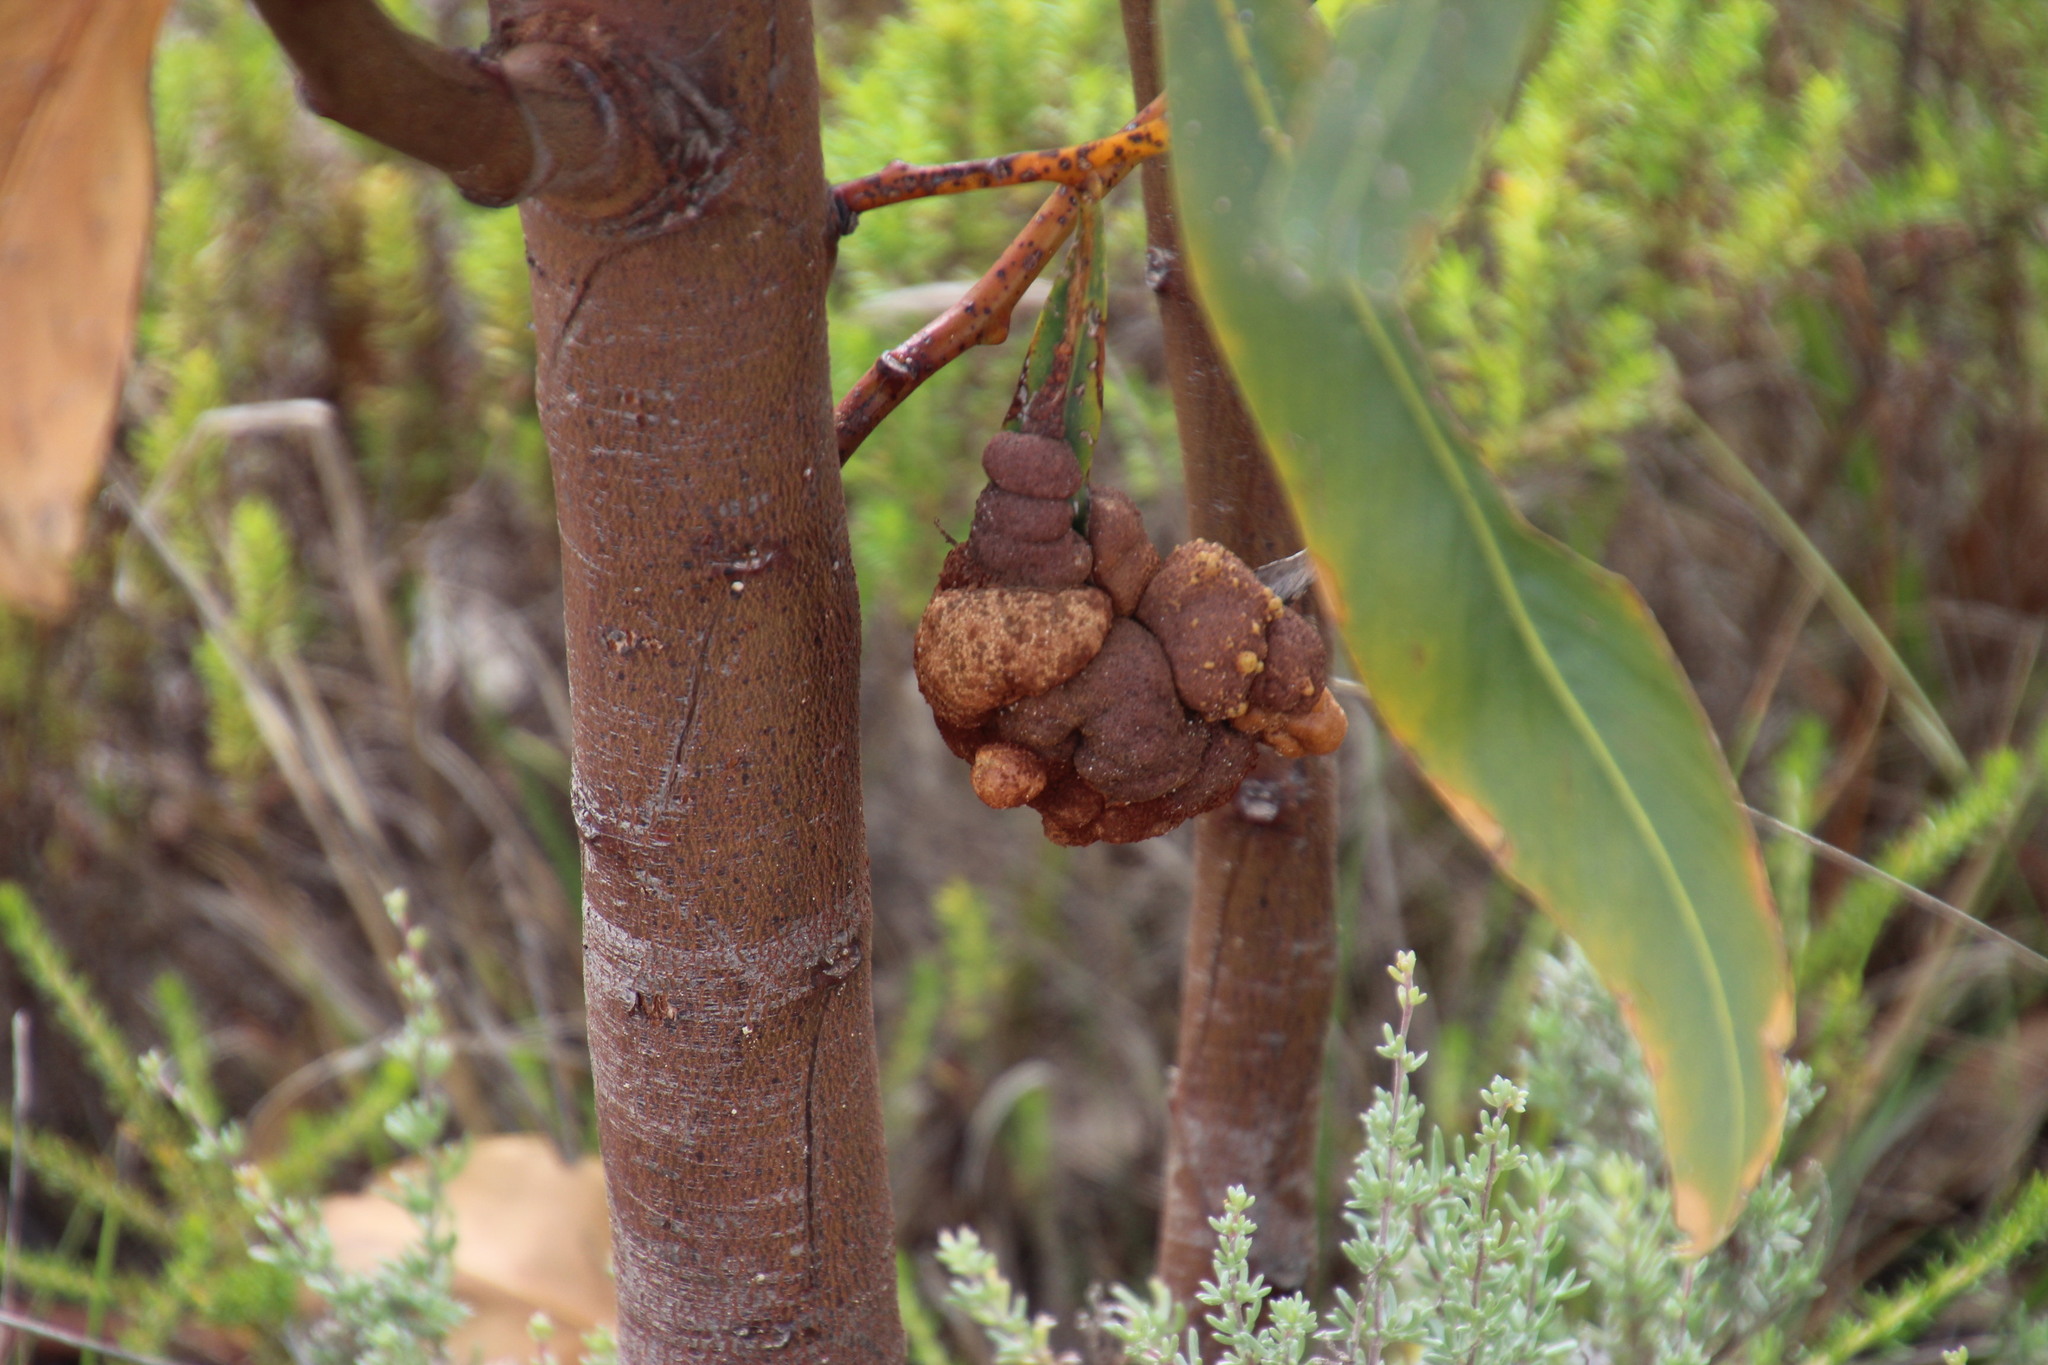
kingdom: Plantae
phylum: Tracheophyta
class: Magnoliopsida
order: Fabales
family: Fabaceae
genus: Acacia
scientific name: Acacia saligna
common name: Orange wattle
